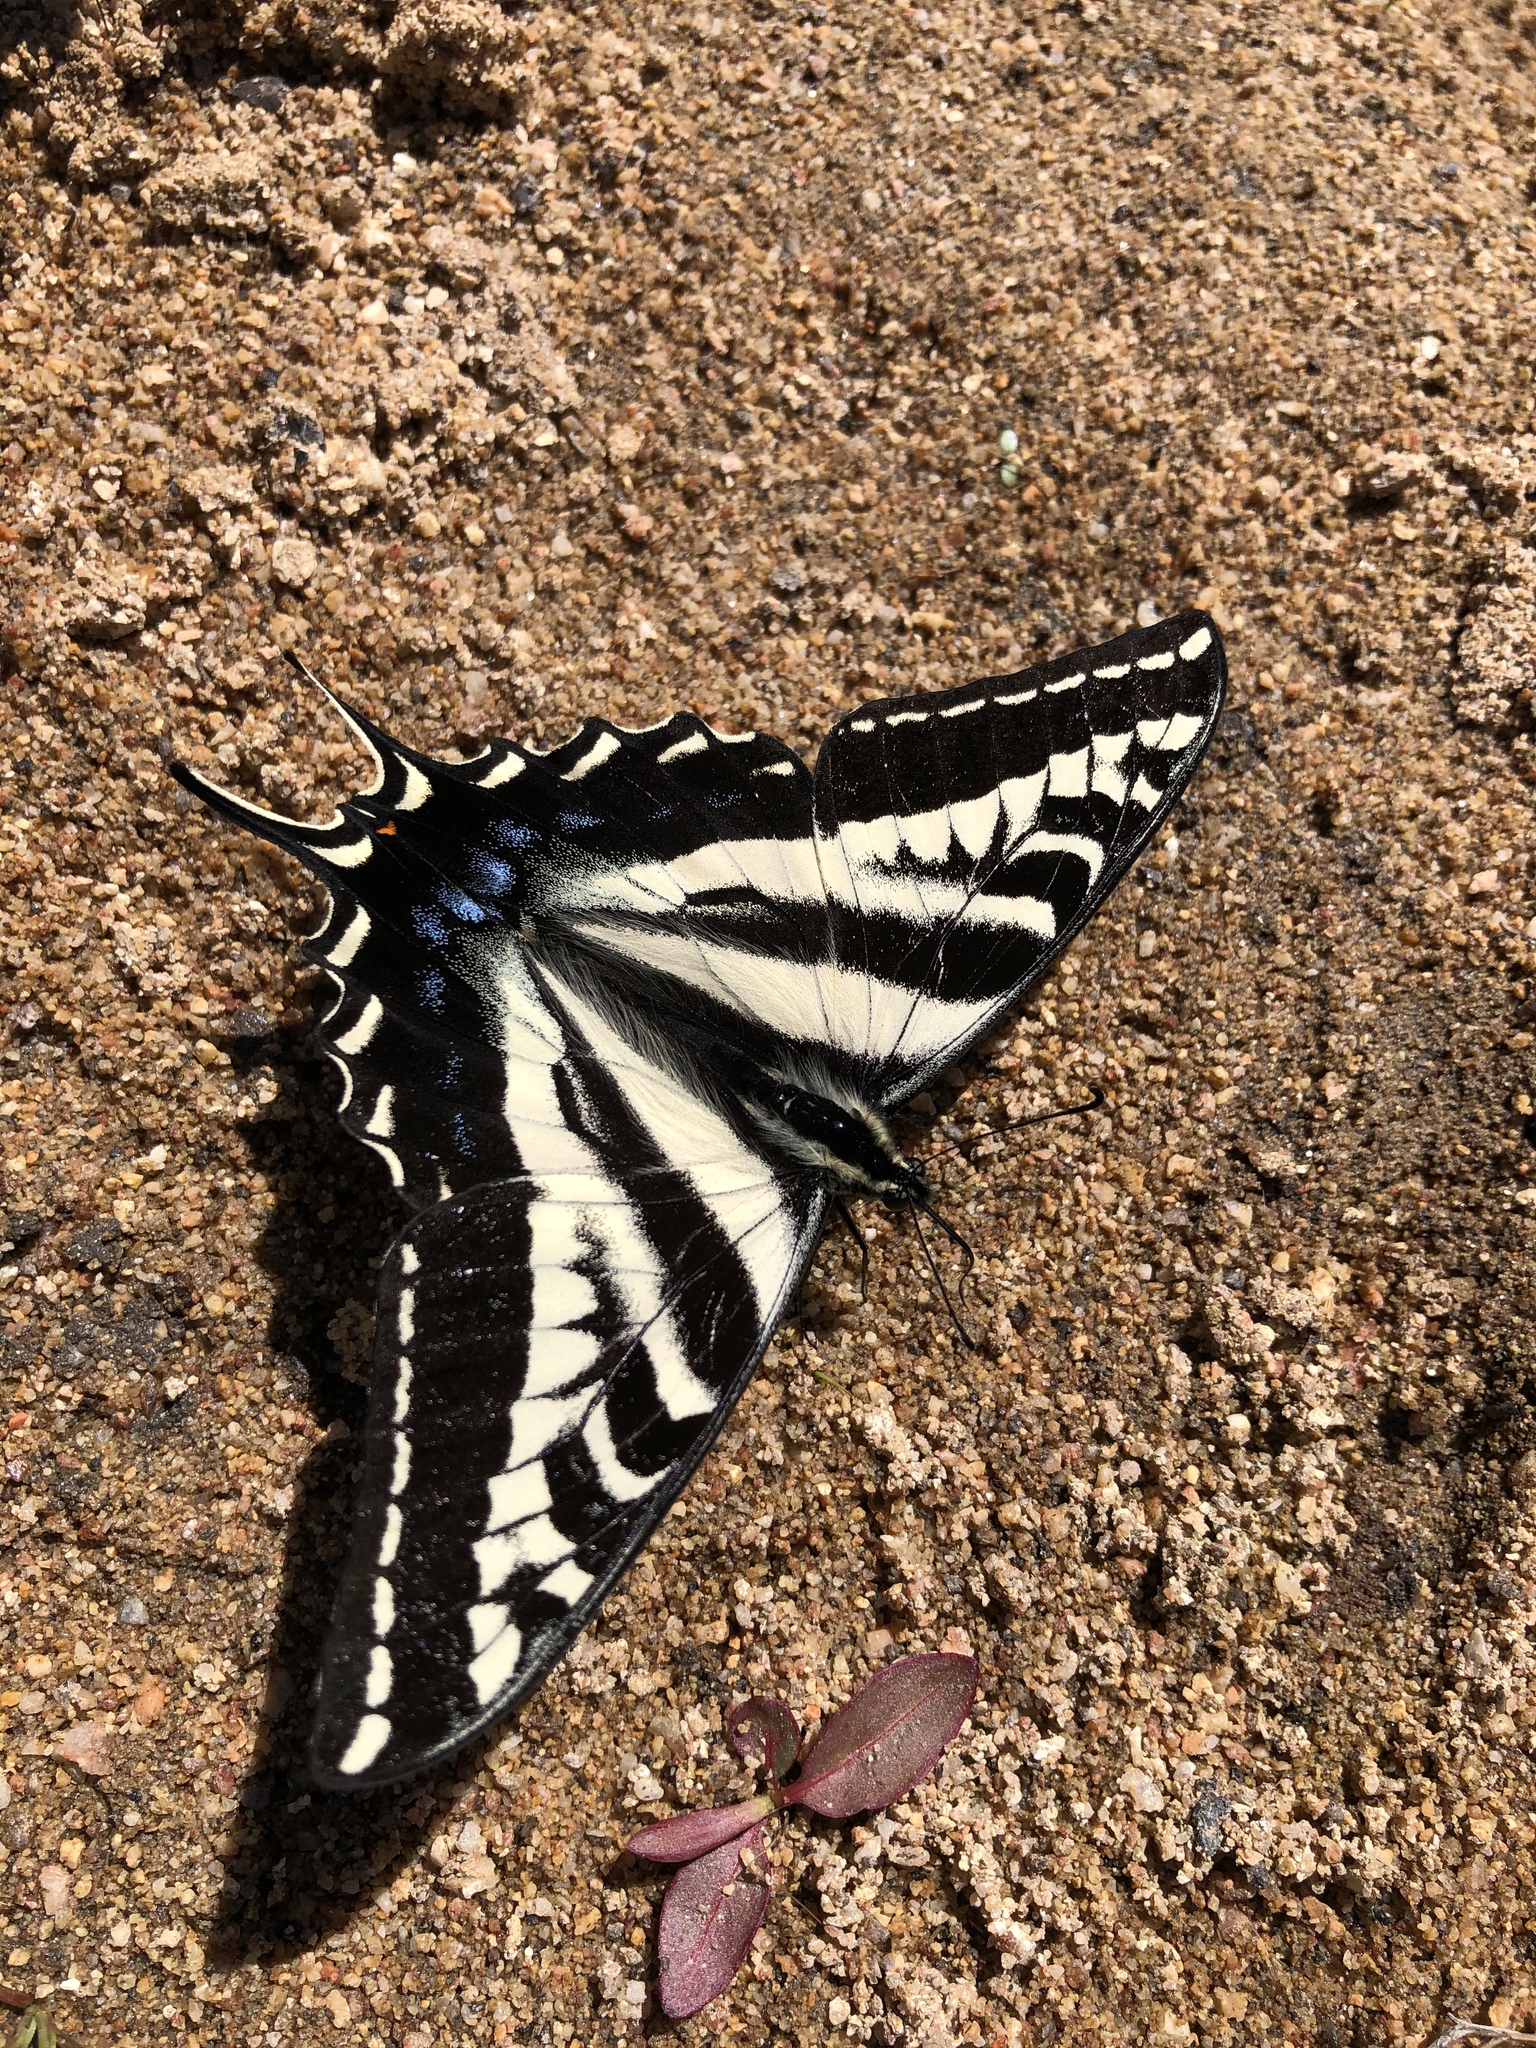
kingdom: Animalia
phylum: Arthropoda
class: Insecta
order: Lepidoptera
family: Papilionidae
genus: Papilio
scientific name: Papilio eurymedon
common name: Pale tiger swallowtail
